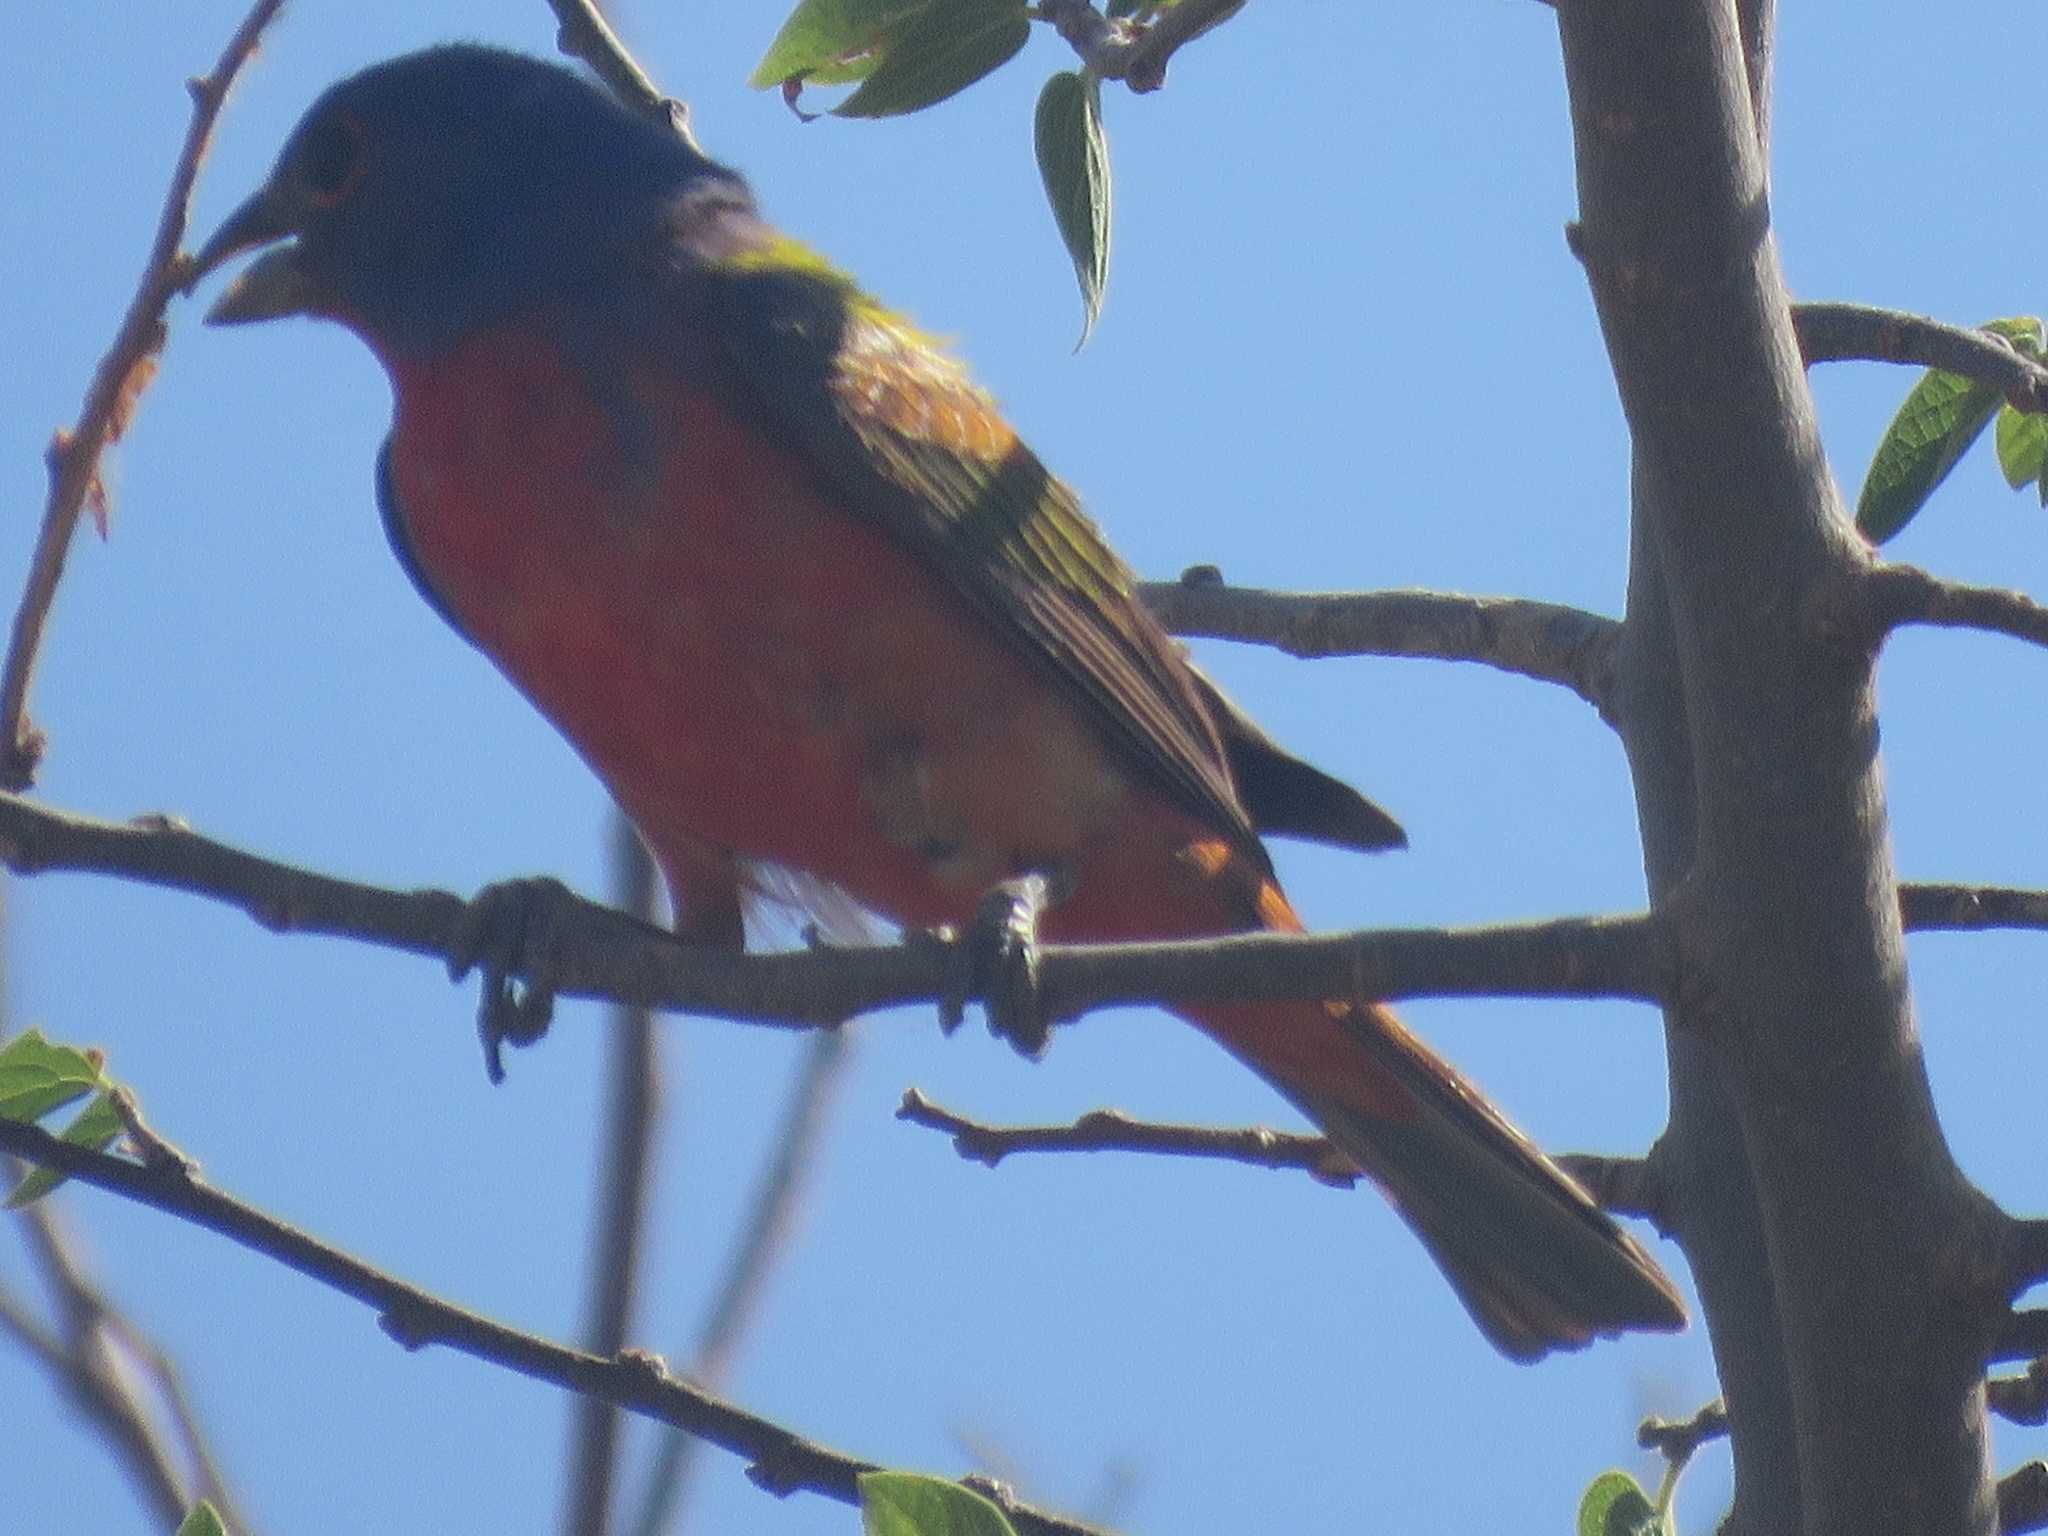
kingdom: Animalia
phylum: Chordata
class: Aves
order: Passeriformes
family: Cardinalidae
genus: Passerina
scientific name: Passerina ciris
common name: Painted bunting
